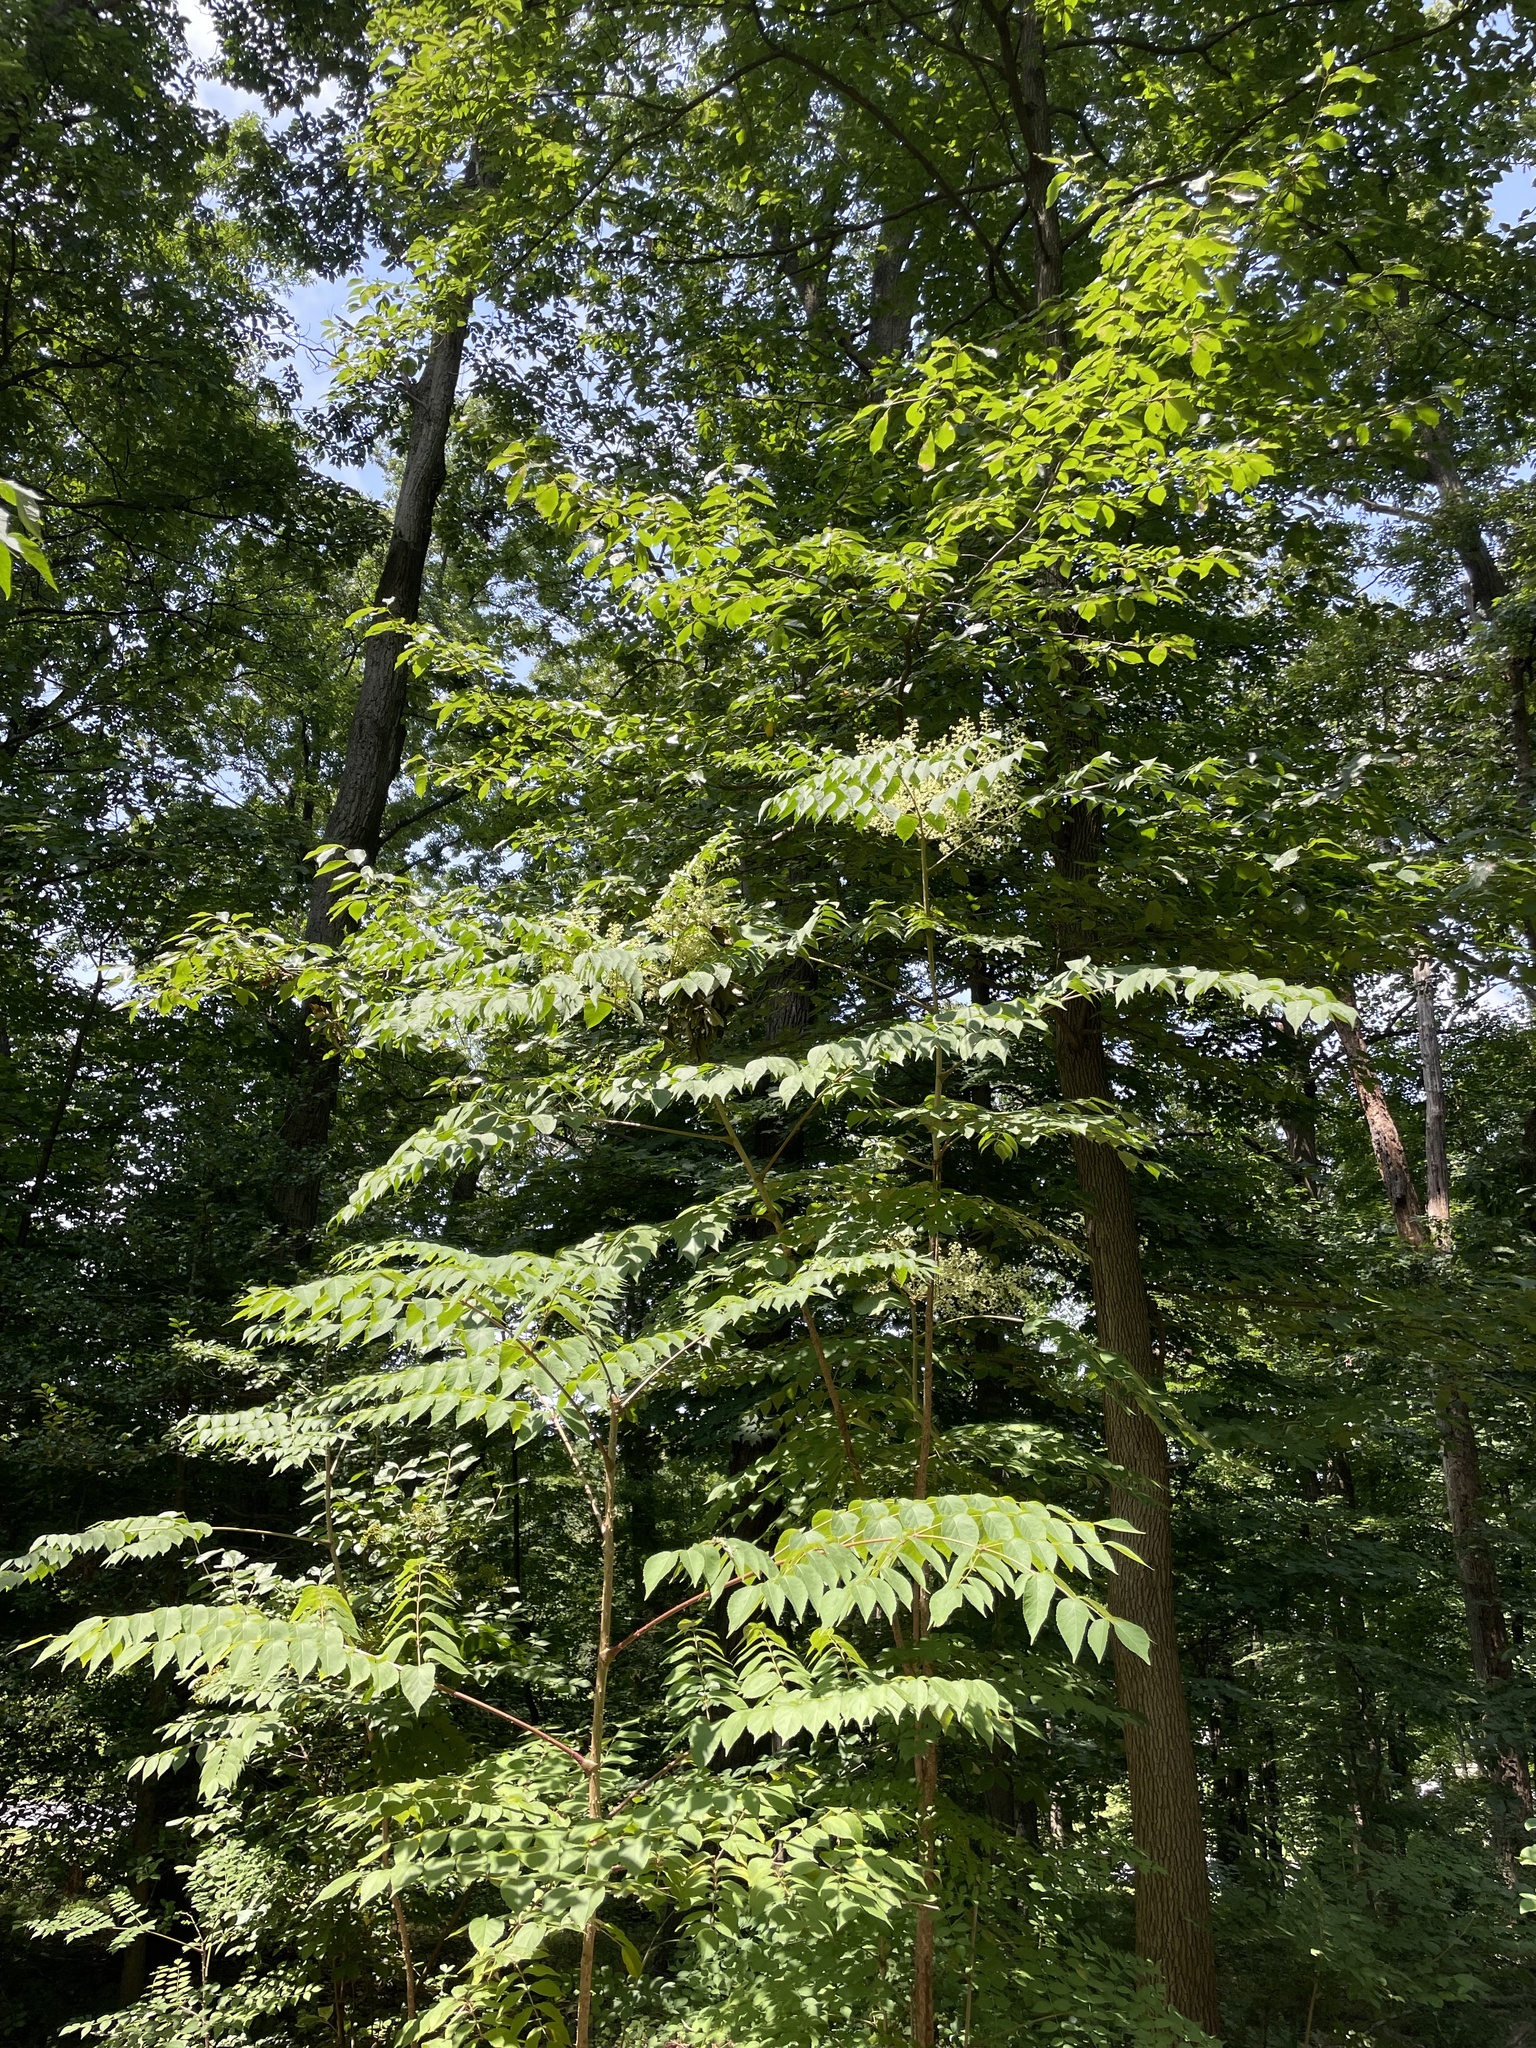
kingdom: Plantae
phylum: Tracheophyta
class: Magnoliopsida
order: Apiales
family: Araliaceae
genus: Aralia
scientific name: Aralia elata
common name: Japanese angelica-tree
